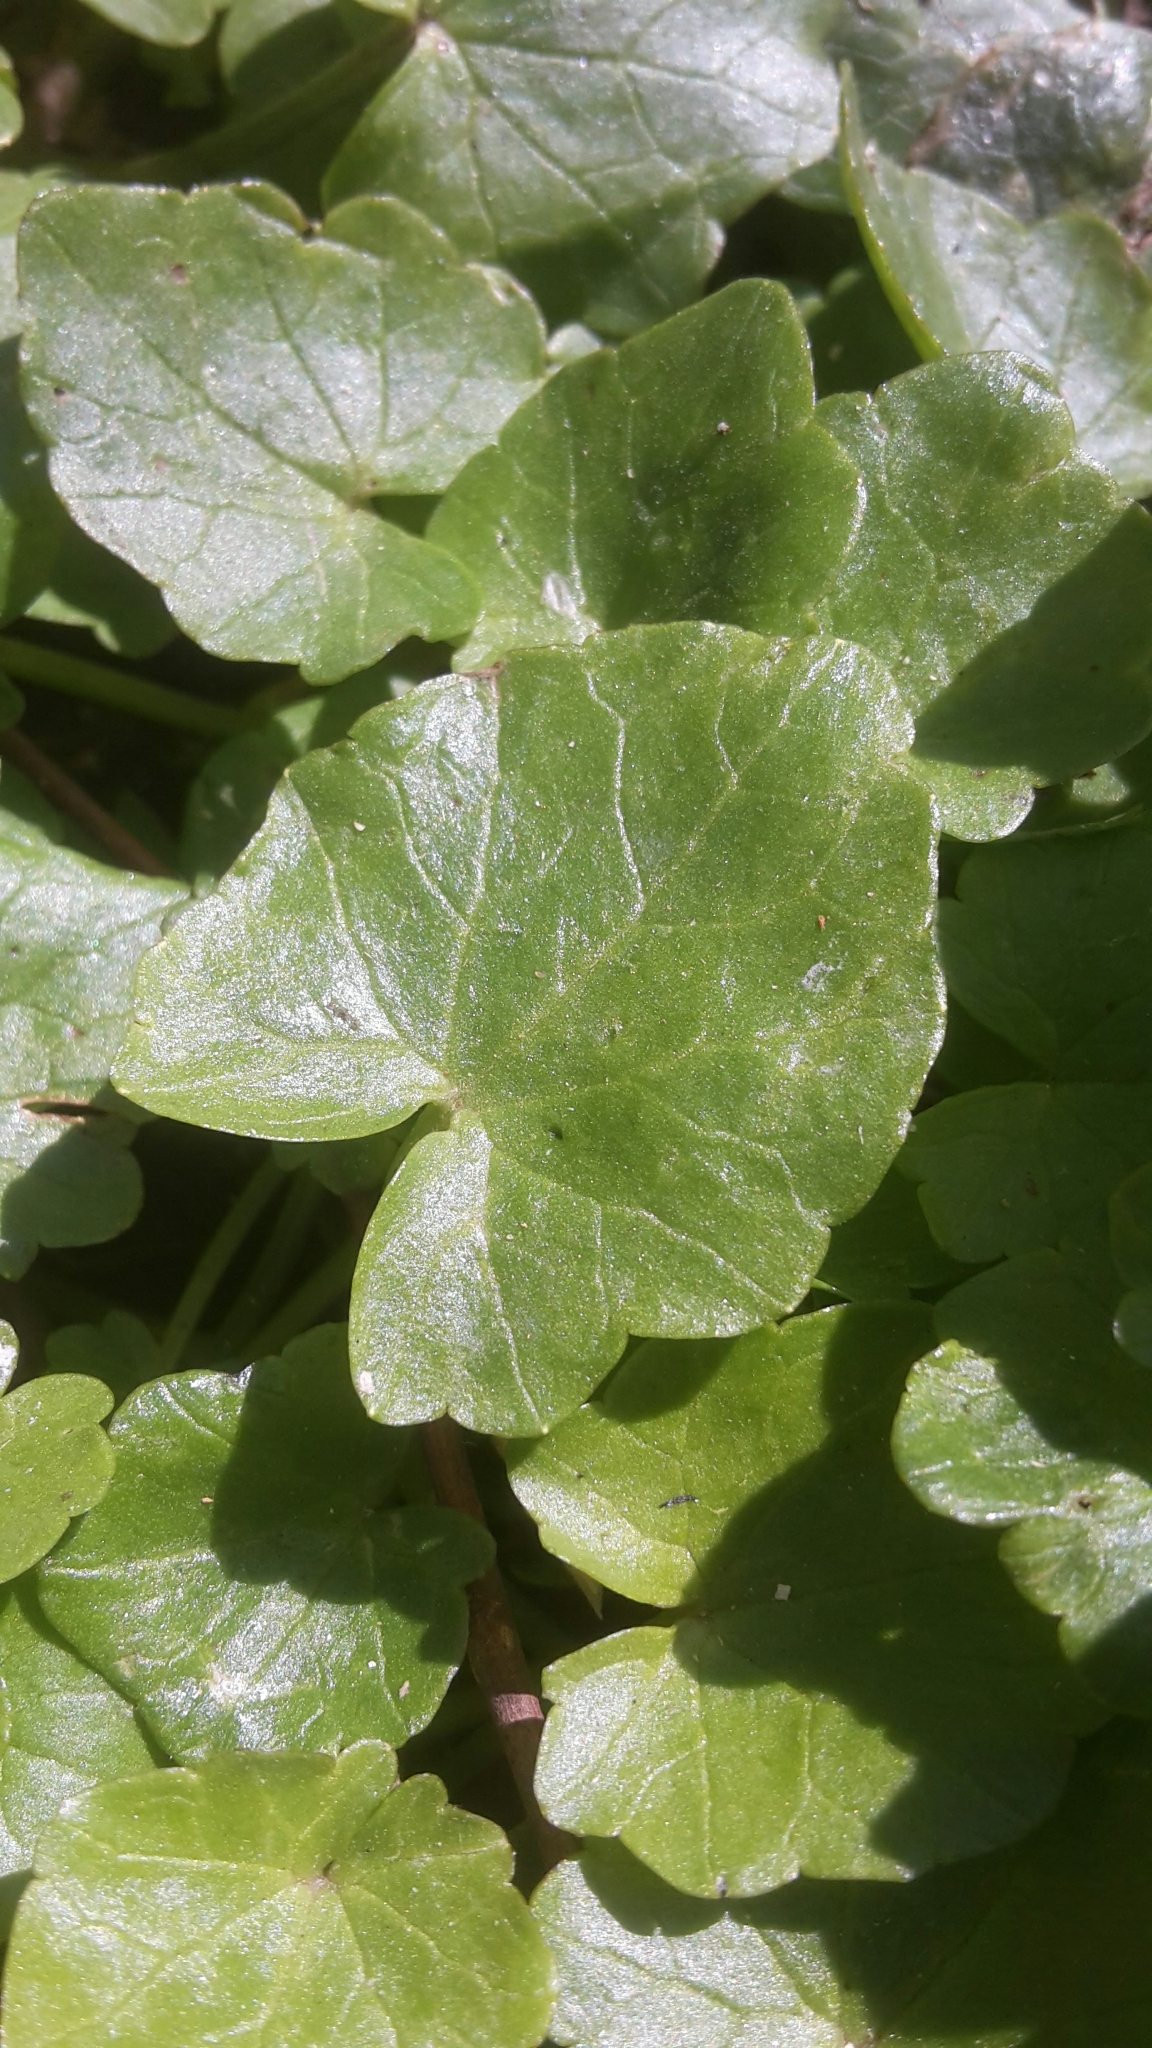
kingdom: Plantae
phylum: Tracheophyta
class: Magnoliopsida
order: Ranunculales
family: Ranunculaceae
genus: Ficaria
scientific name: Ficaria verna
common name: Lesser celandine
